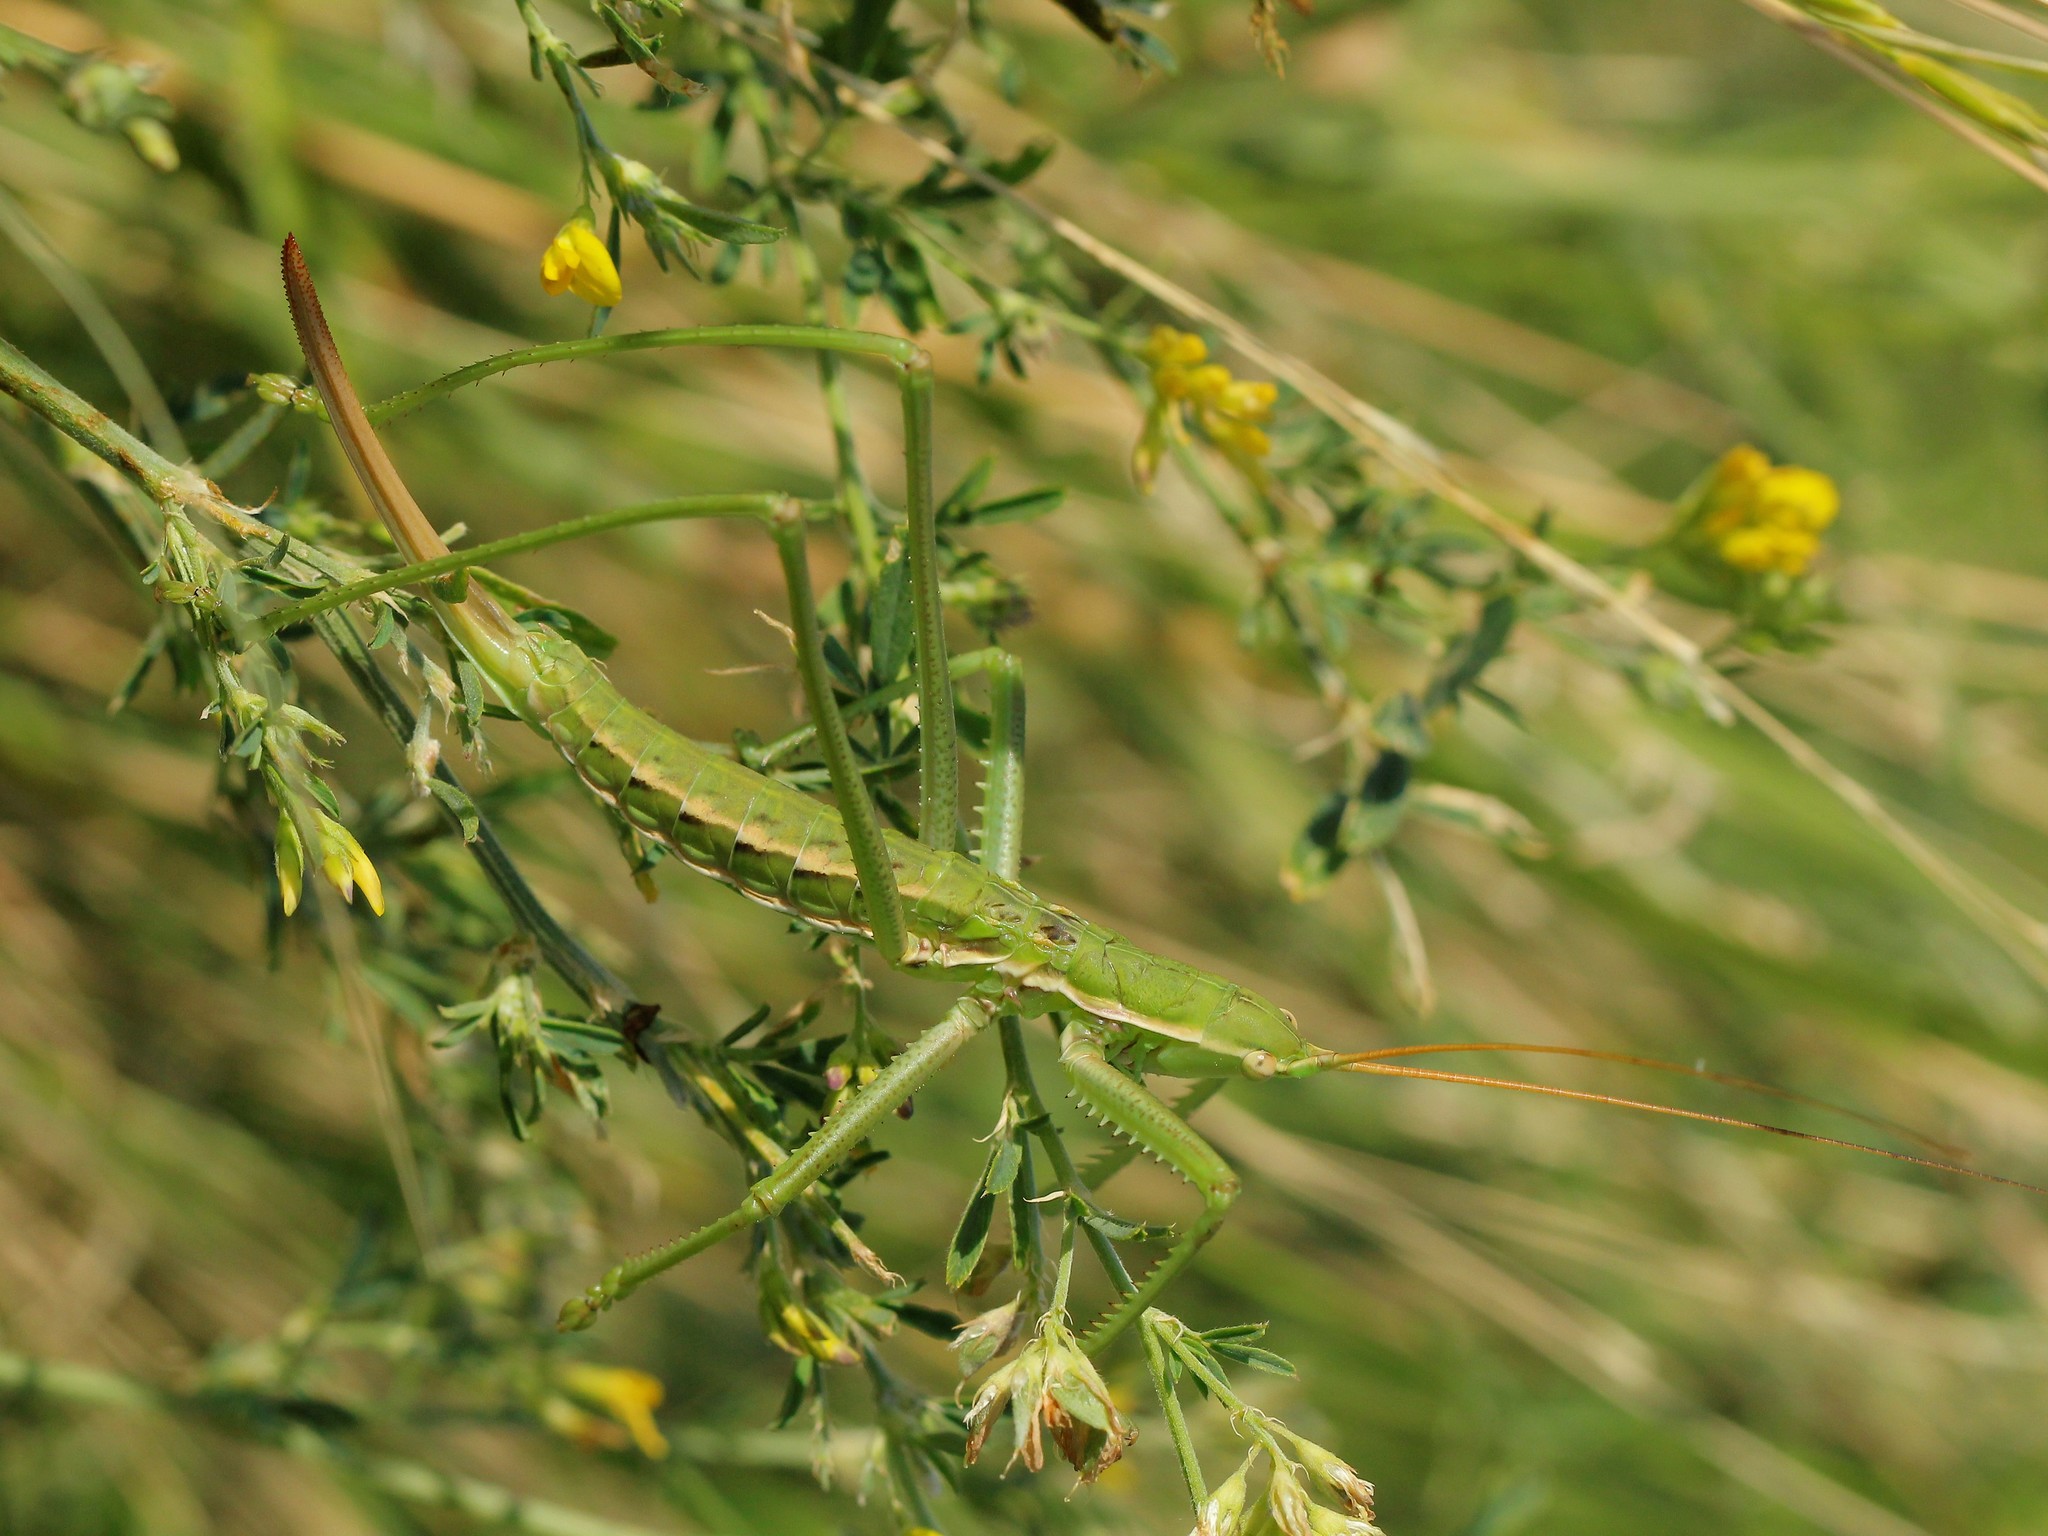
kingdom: Animalia
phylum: Arthropoda
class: Insecta
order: Orthoptera
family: Tettigoniidae
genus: Saga
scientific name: Saga pedo
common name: Common predatory bush-cricket
